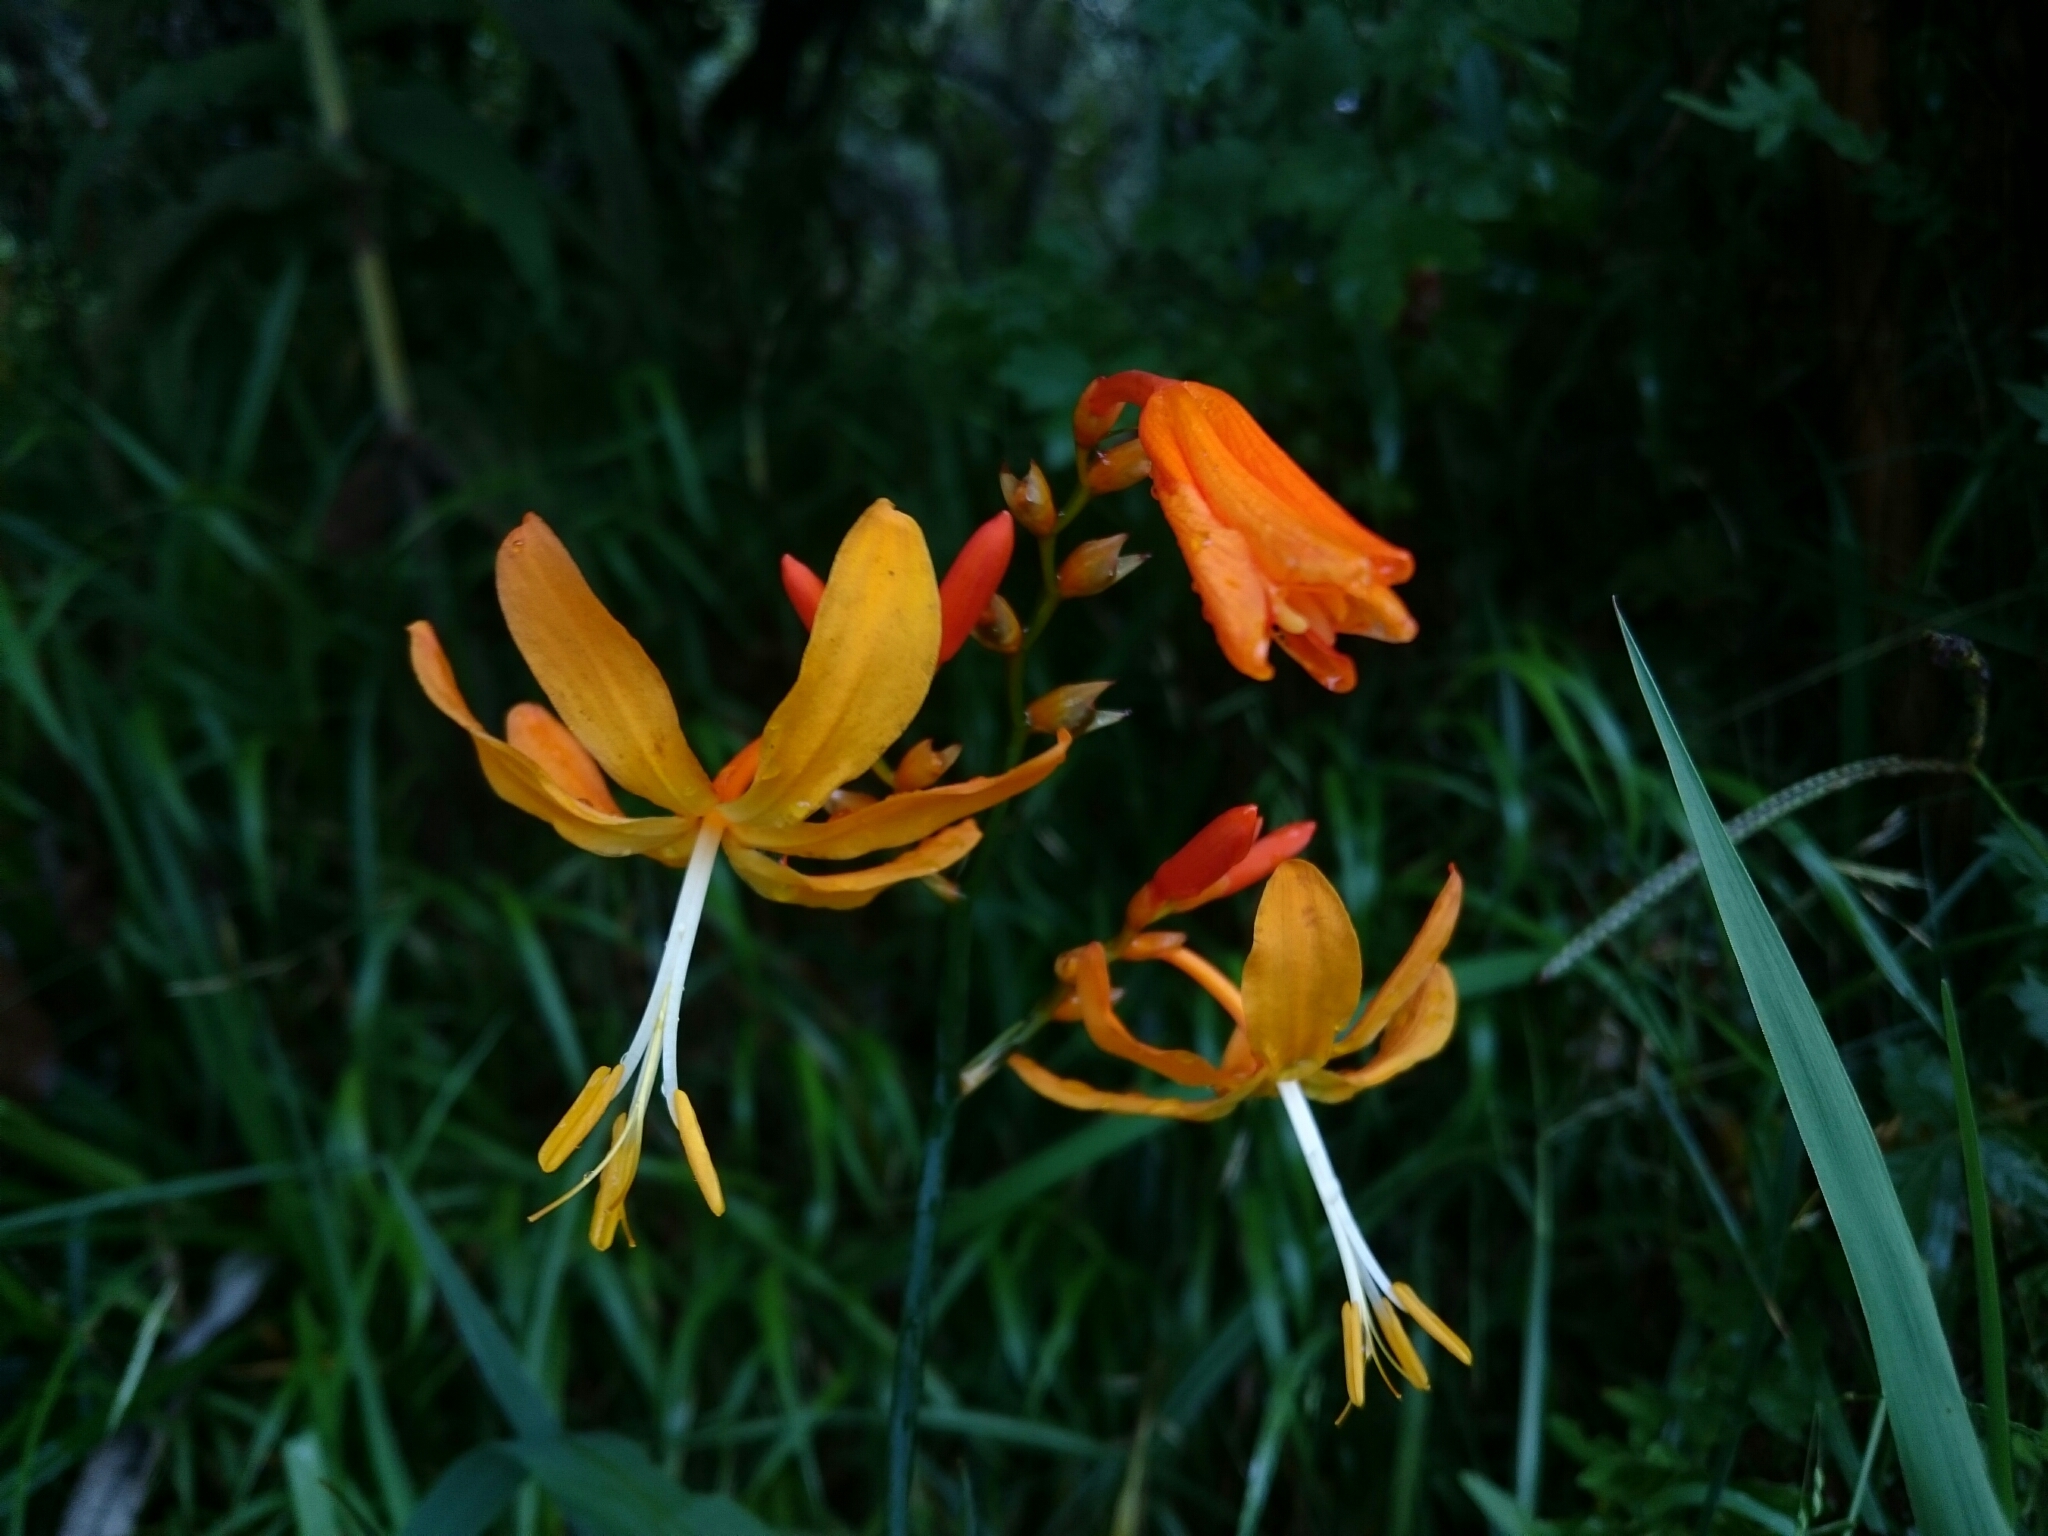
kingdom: Plantae
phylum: Tracheophyta
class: Liliopsida
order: Asparagales
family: Iridaceae
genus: Crocosmia
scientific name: Crocosmia aurea
